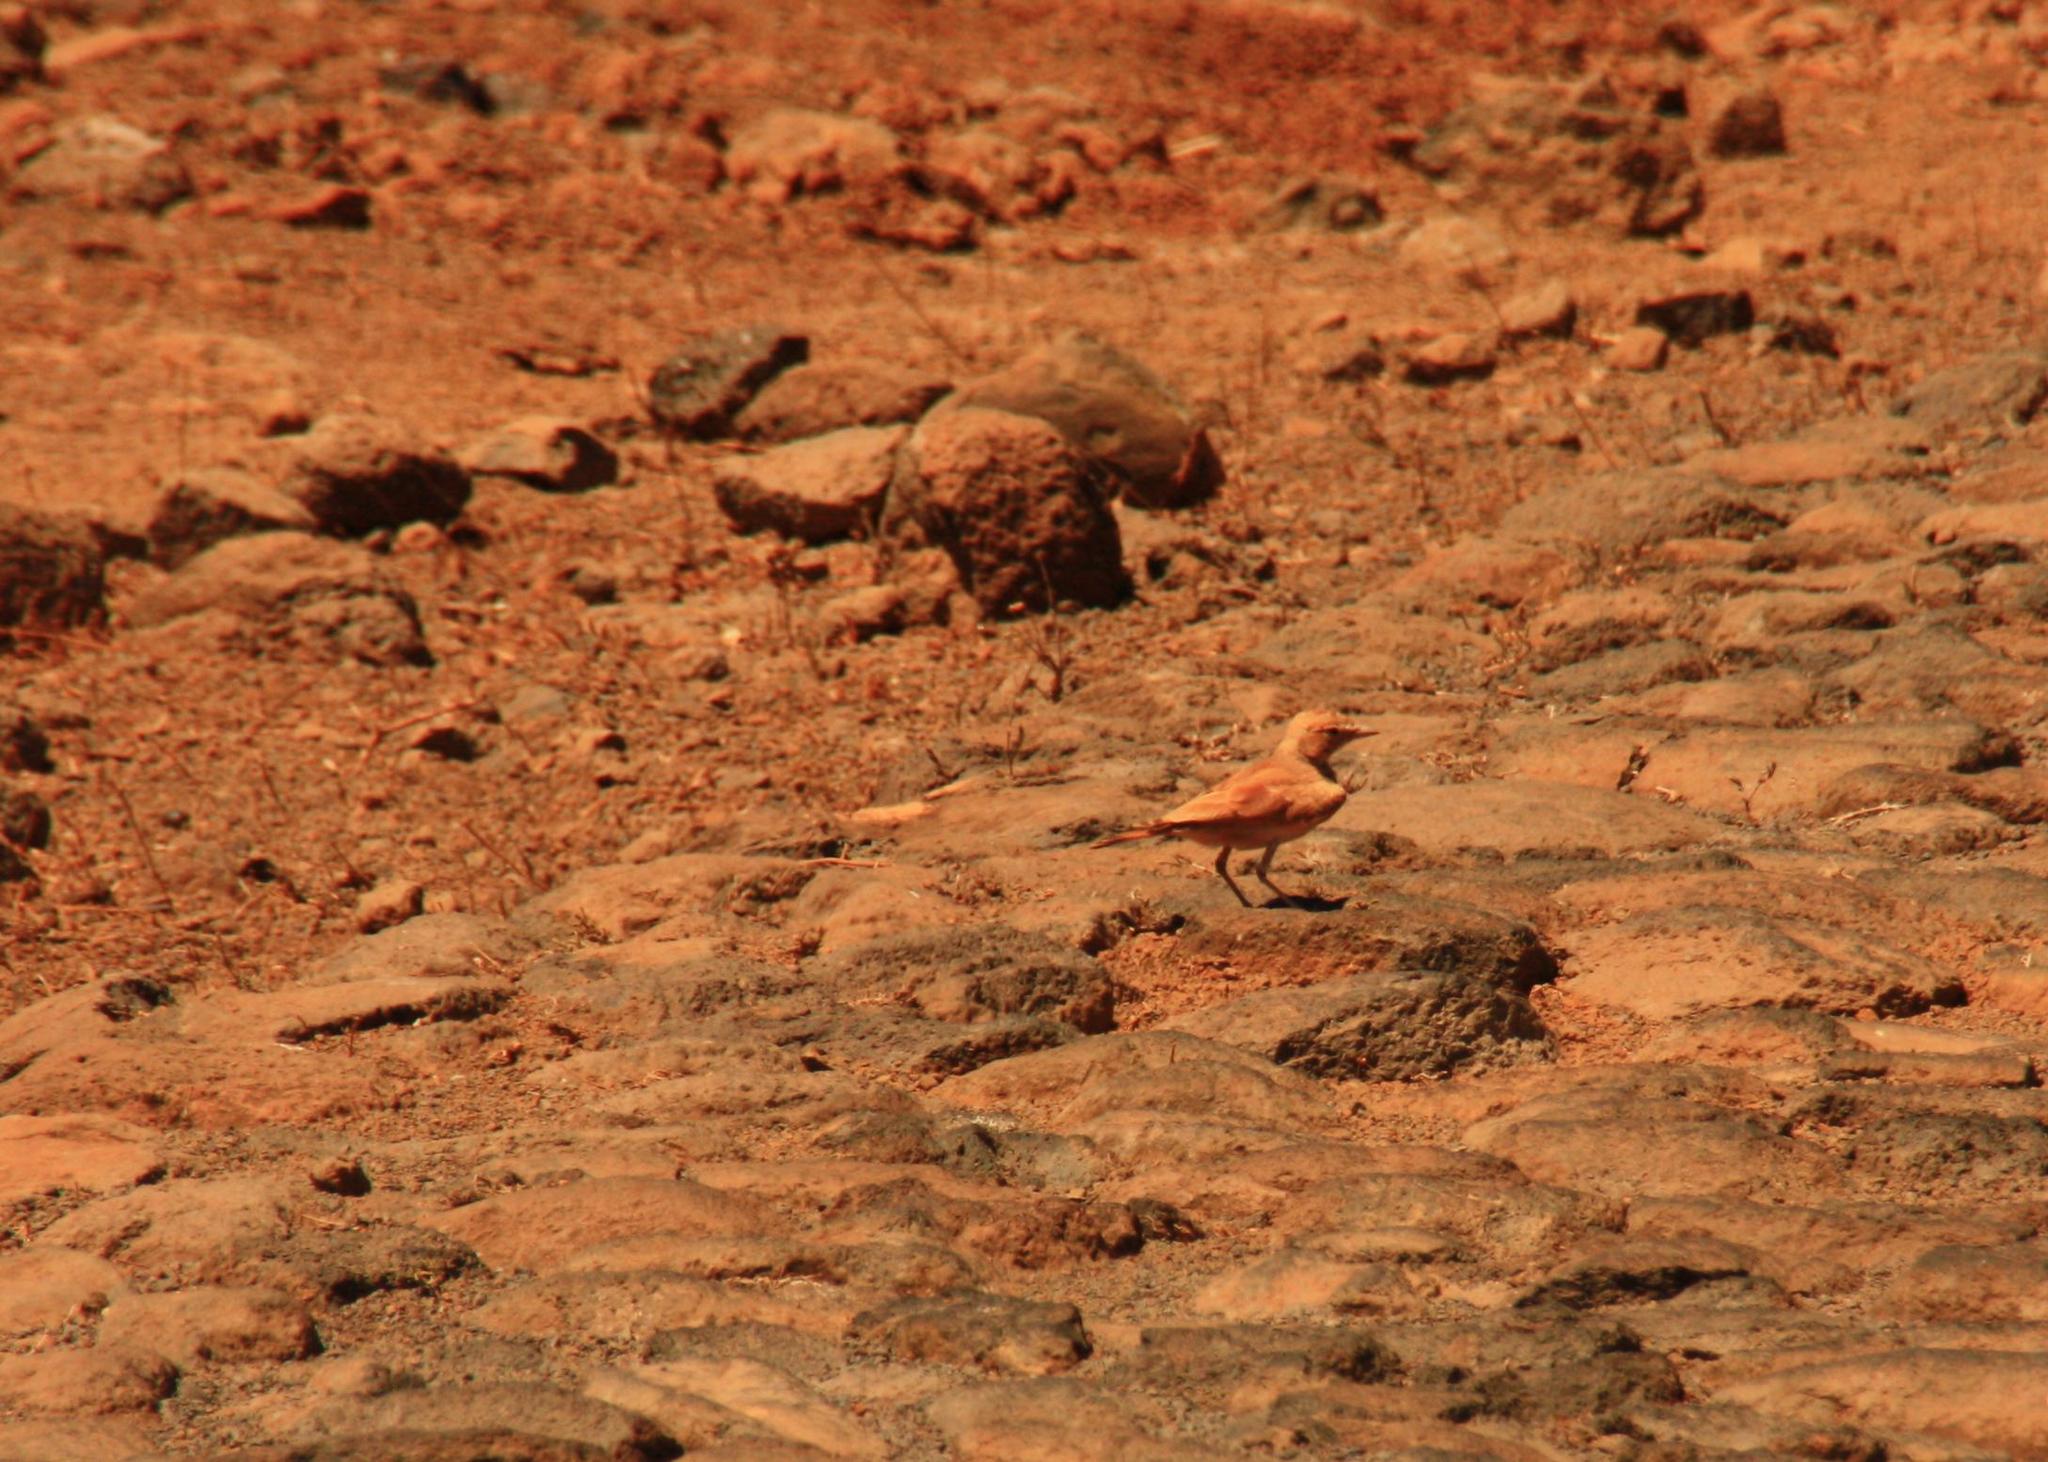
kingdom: Animalia
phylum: Chordata
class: Aves
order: Passeriformes
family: Alaudidae
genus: Ammomanes
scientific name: Ammomanes cinctura
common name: Bar-tailed lark
